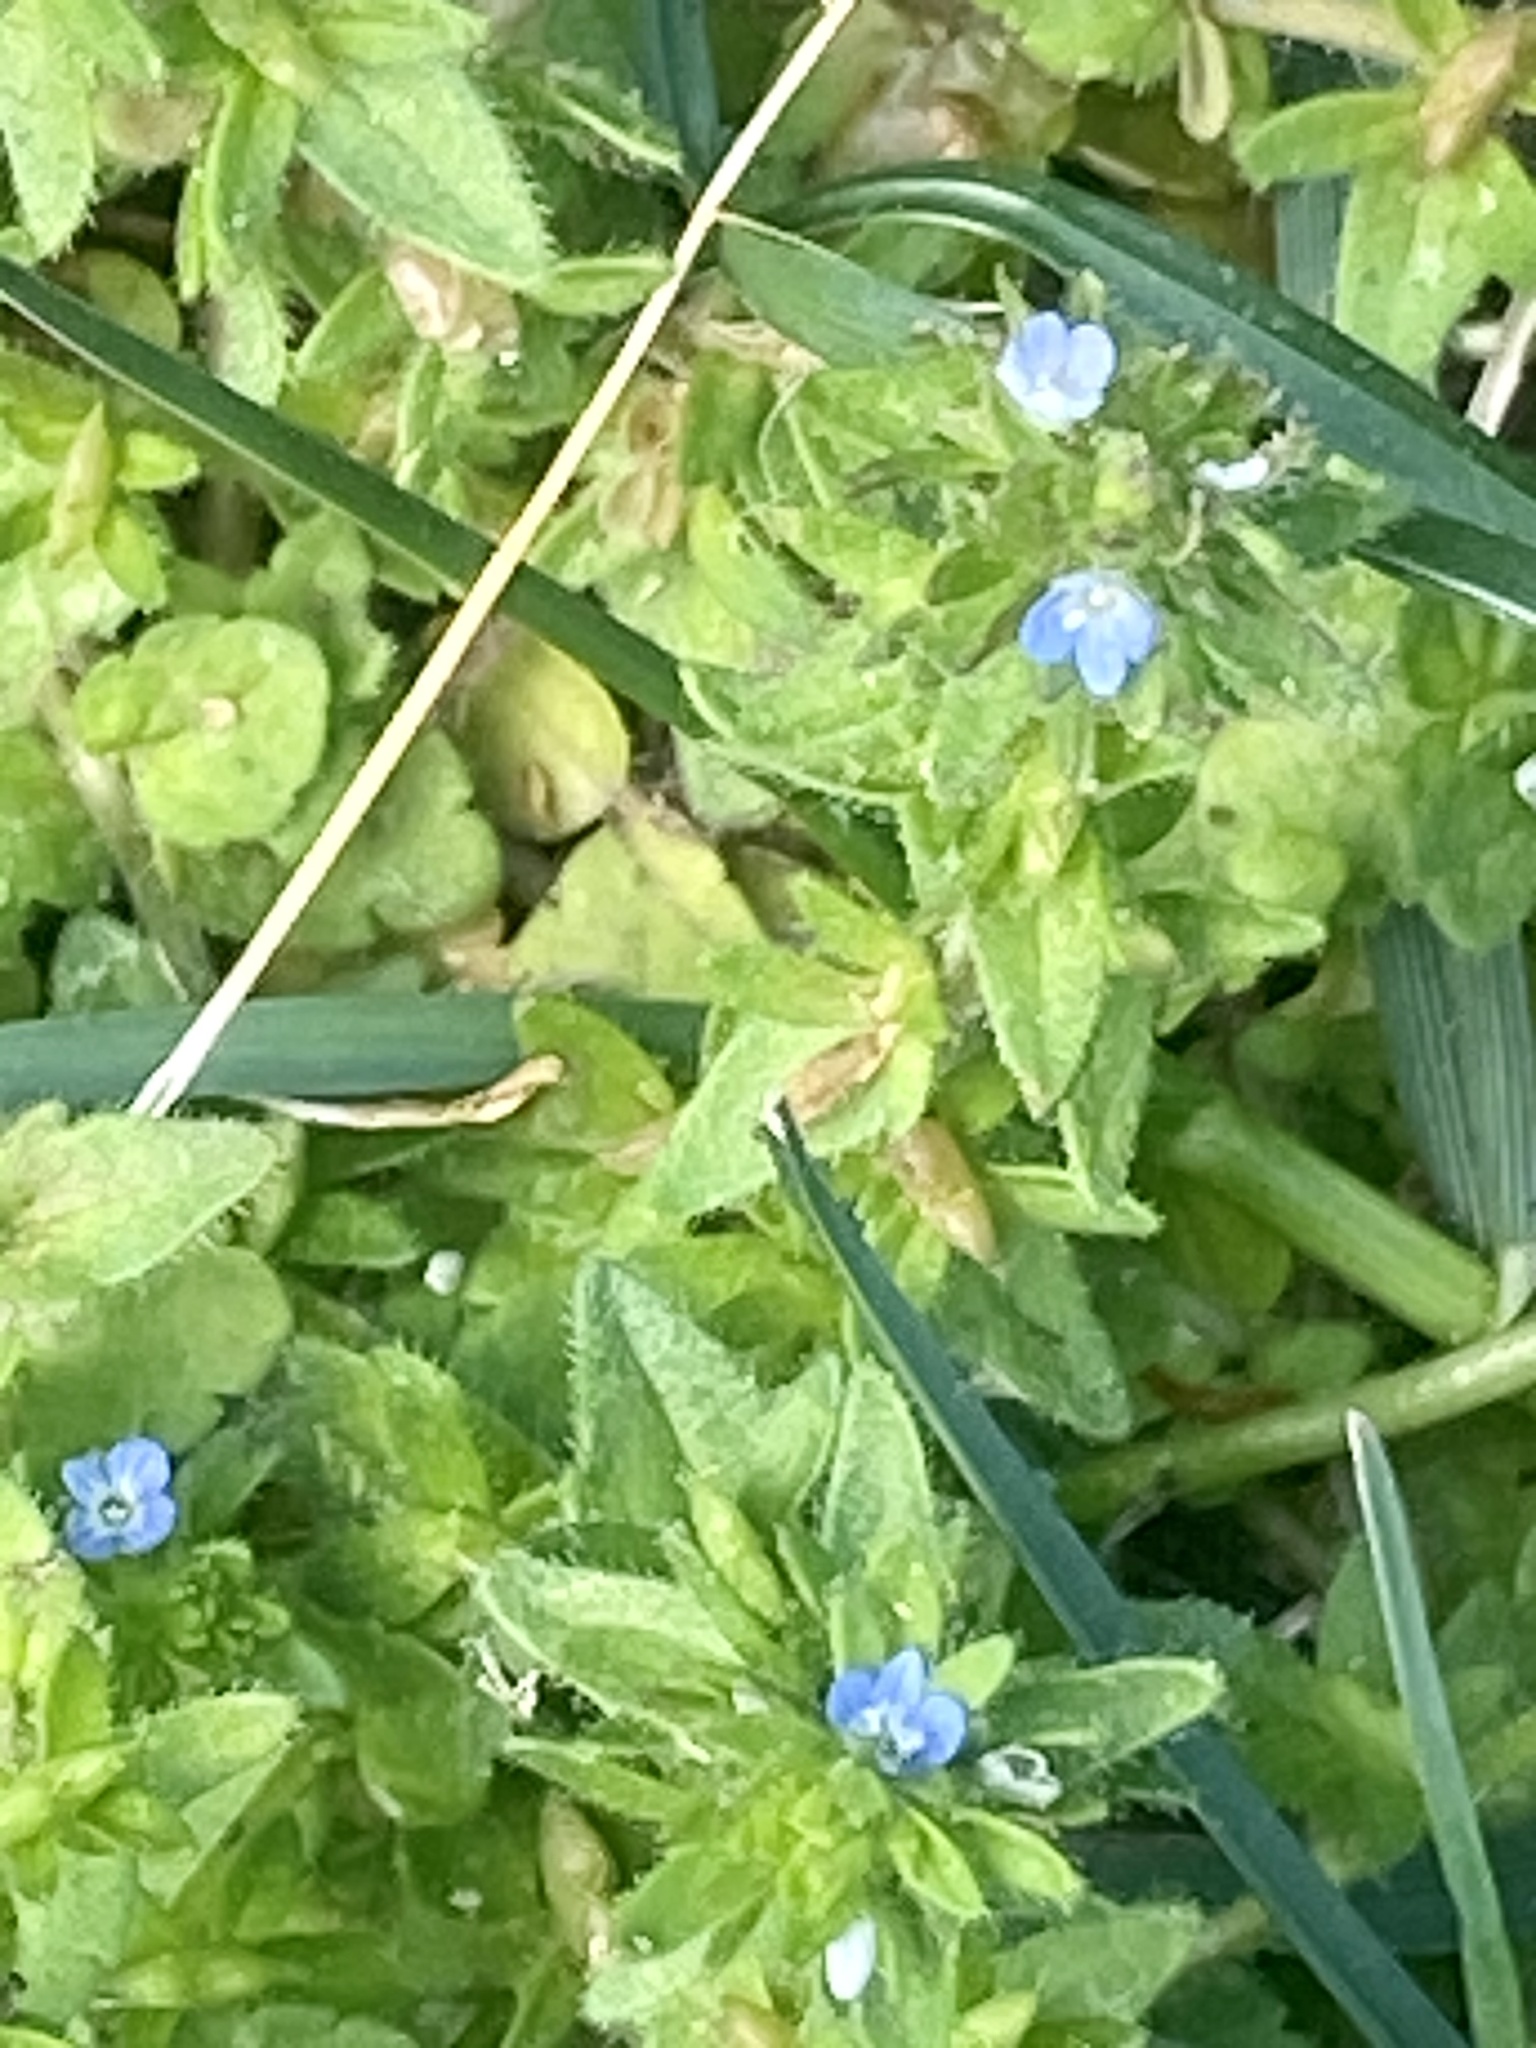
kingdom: Plantae
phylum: Tracheophyta
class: Magnoliopsida
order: Lamiales
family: Plantaginaceae
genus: Veronica
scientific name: Veronica arvensis
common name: Corn speedwell
